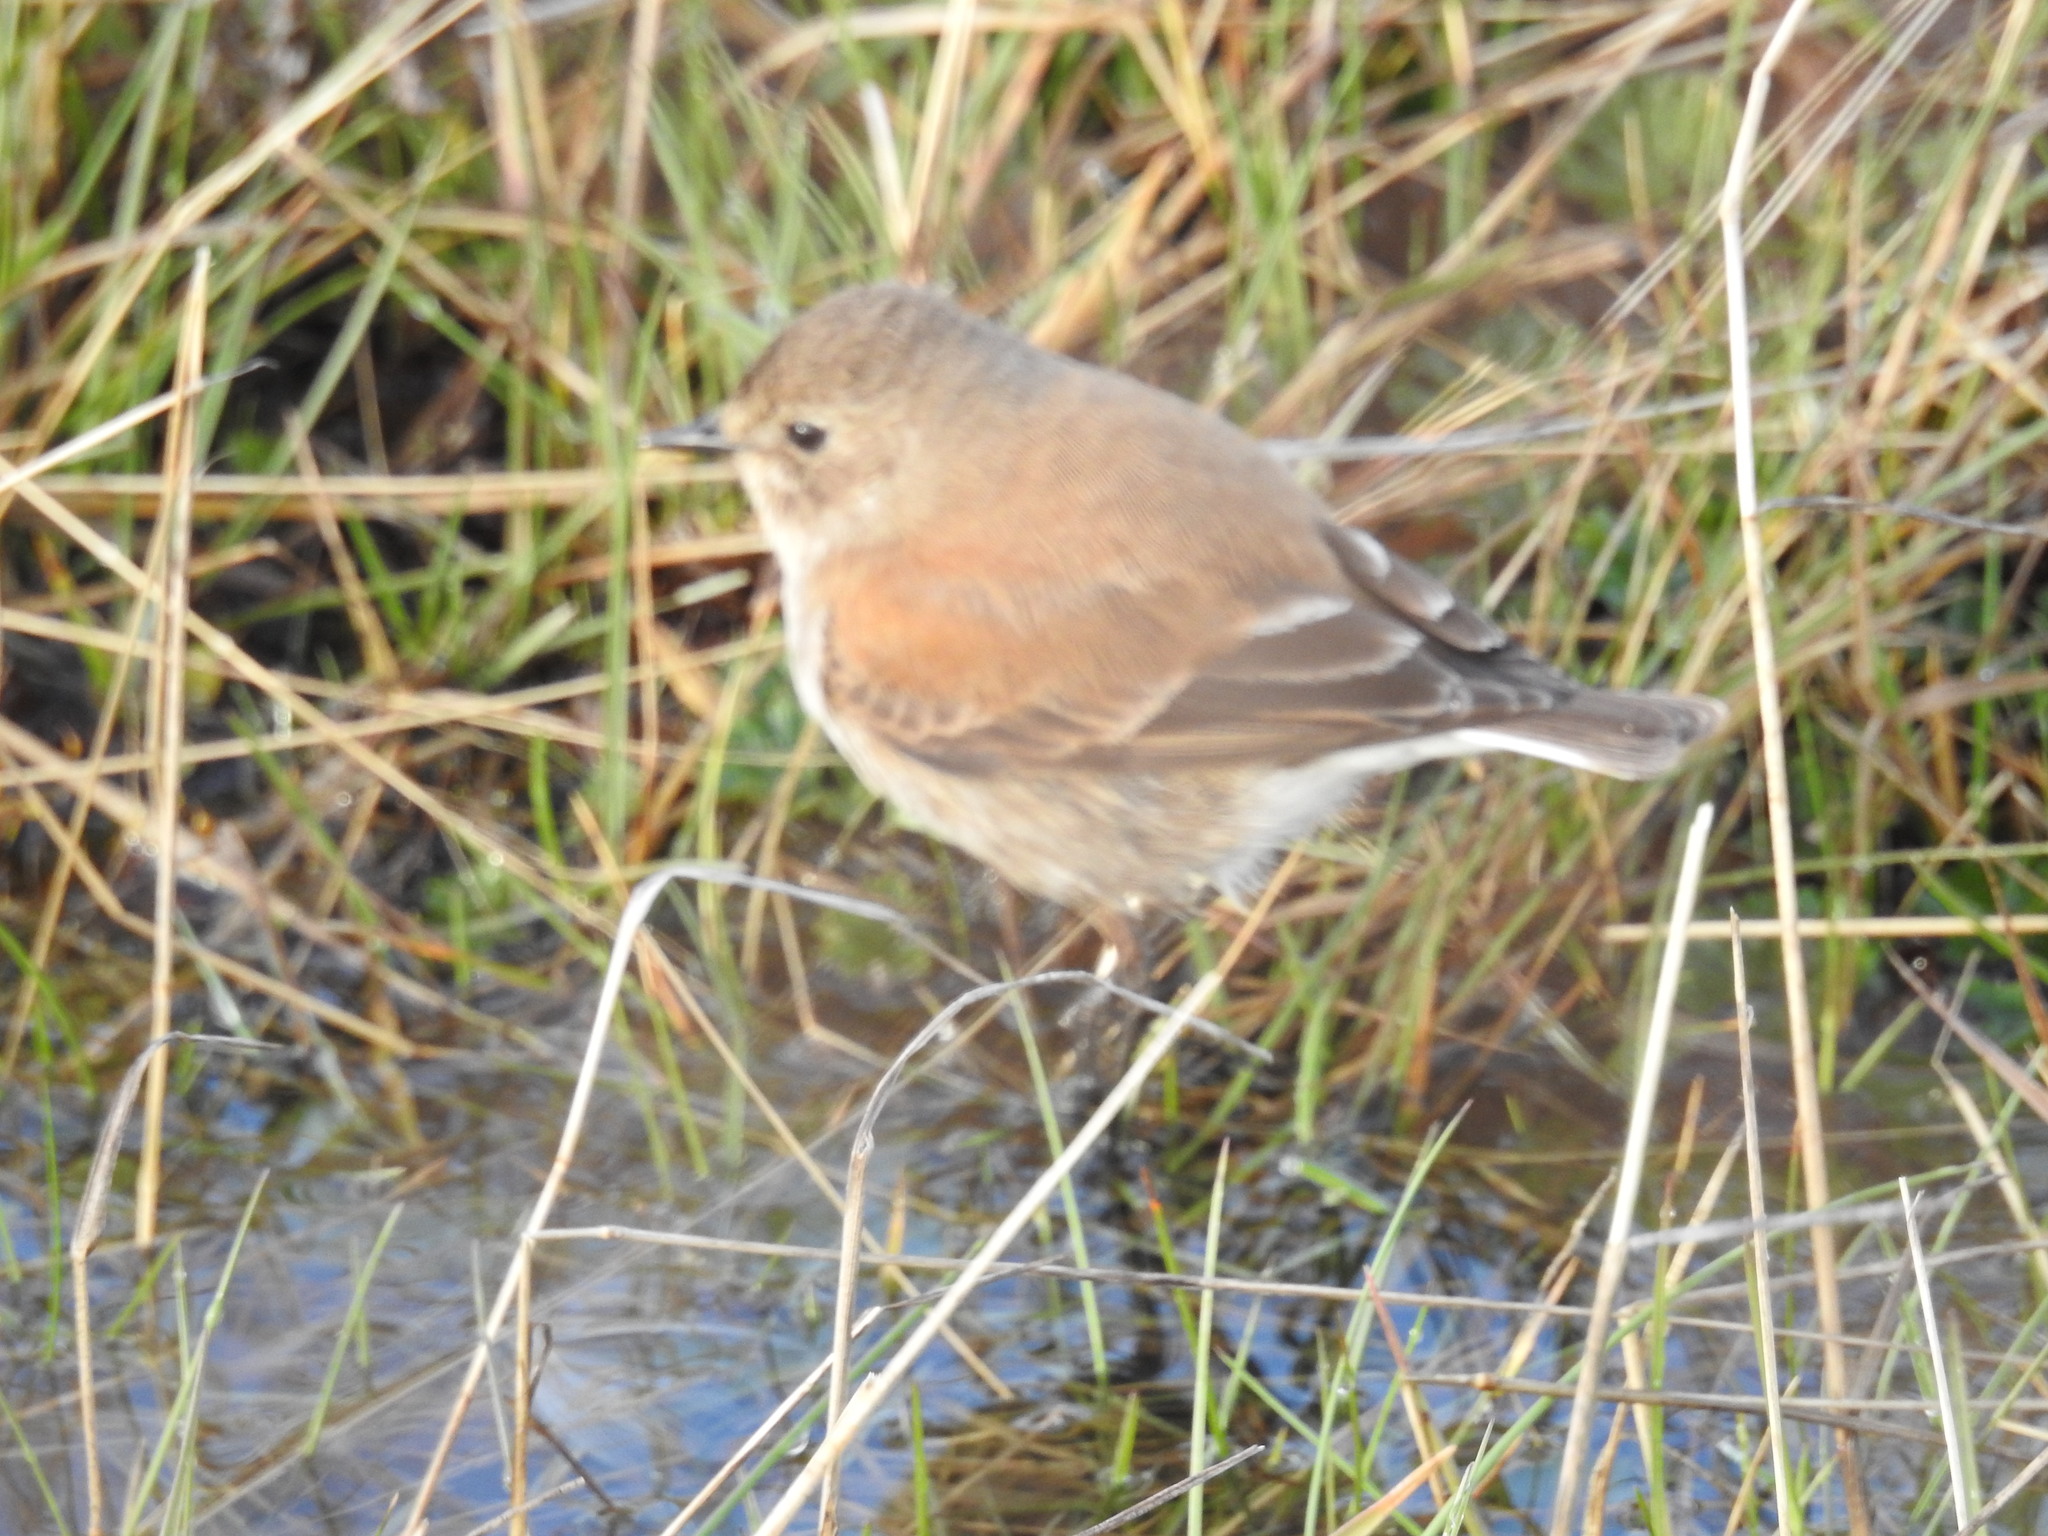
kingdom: Animalia
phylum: Chordata
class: Aves
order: Passeriformes
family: Tyrannidae
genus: Lessonia
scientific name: Lessonia rufa
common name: Austral negrito
